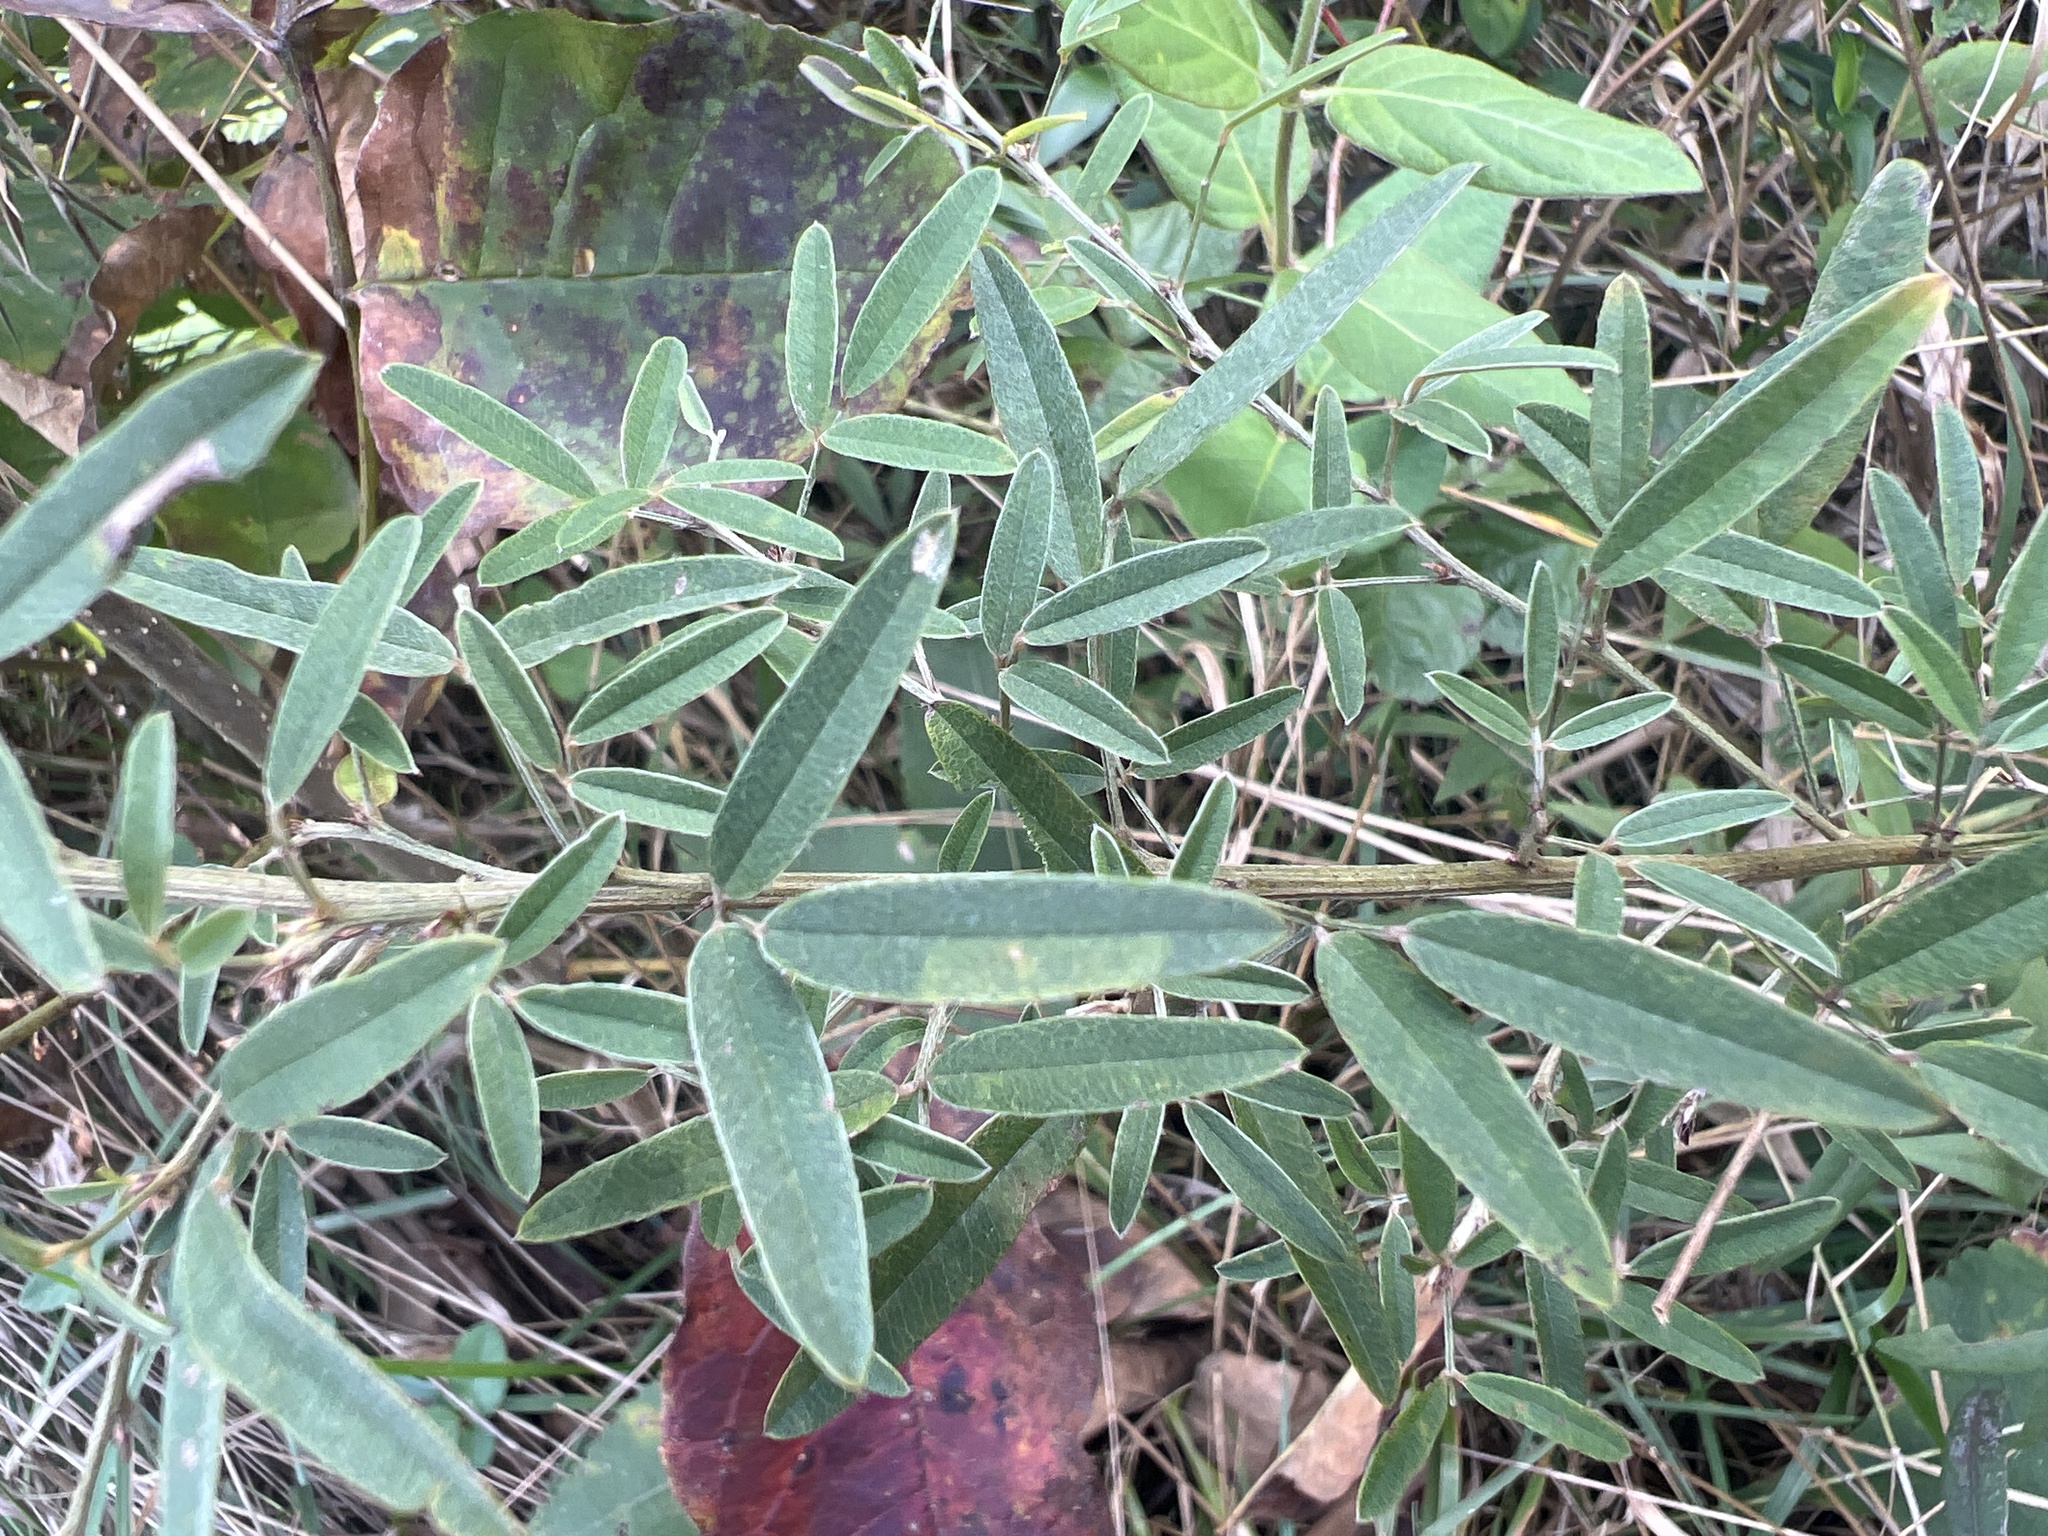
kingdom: Plantae
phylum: Tracheophyta
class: Magnoliopsida
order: Fabales
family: Fabaceae
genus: Lespedeza
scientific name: Lespedeza virginica
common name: Slender bush-clover
